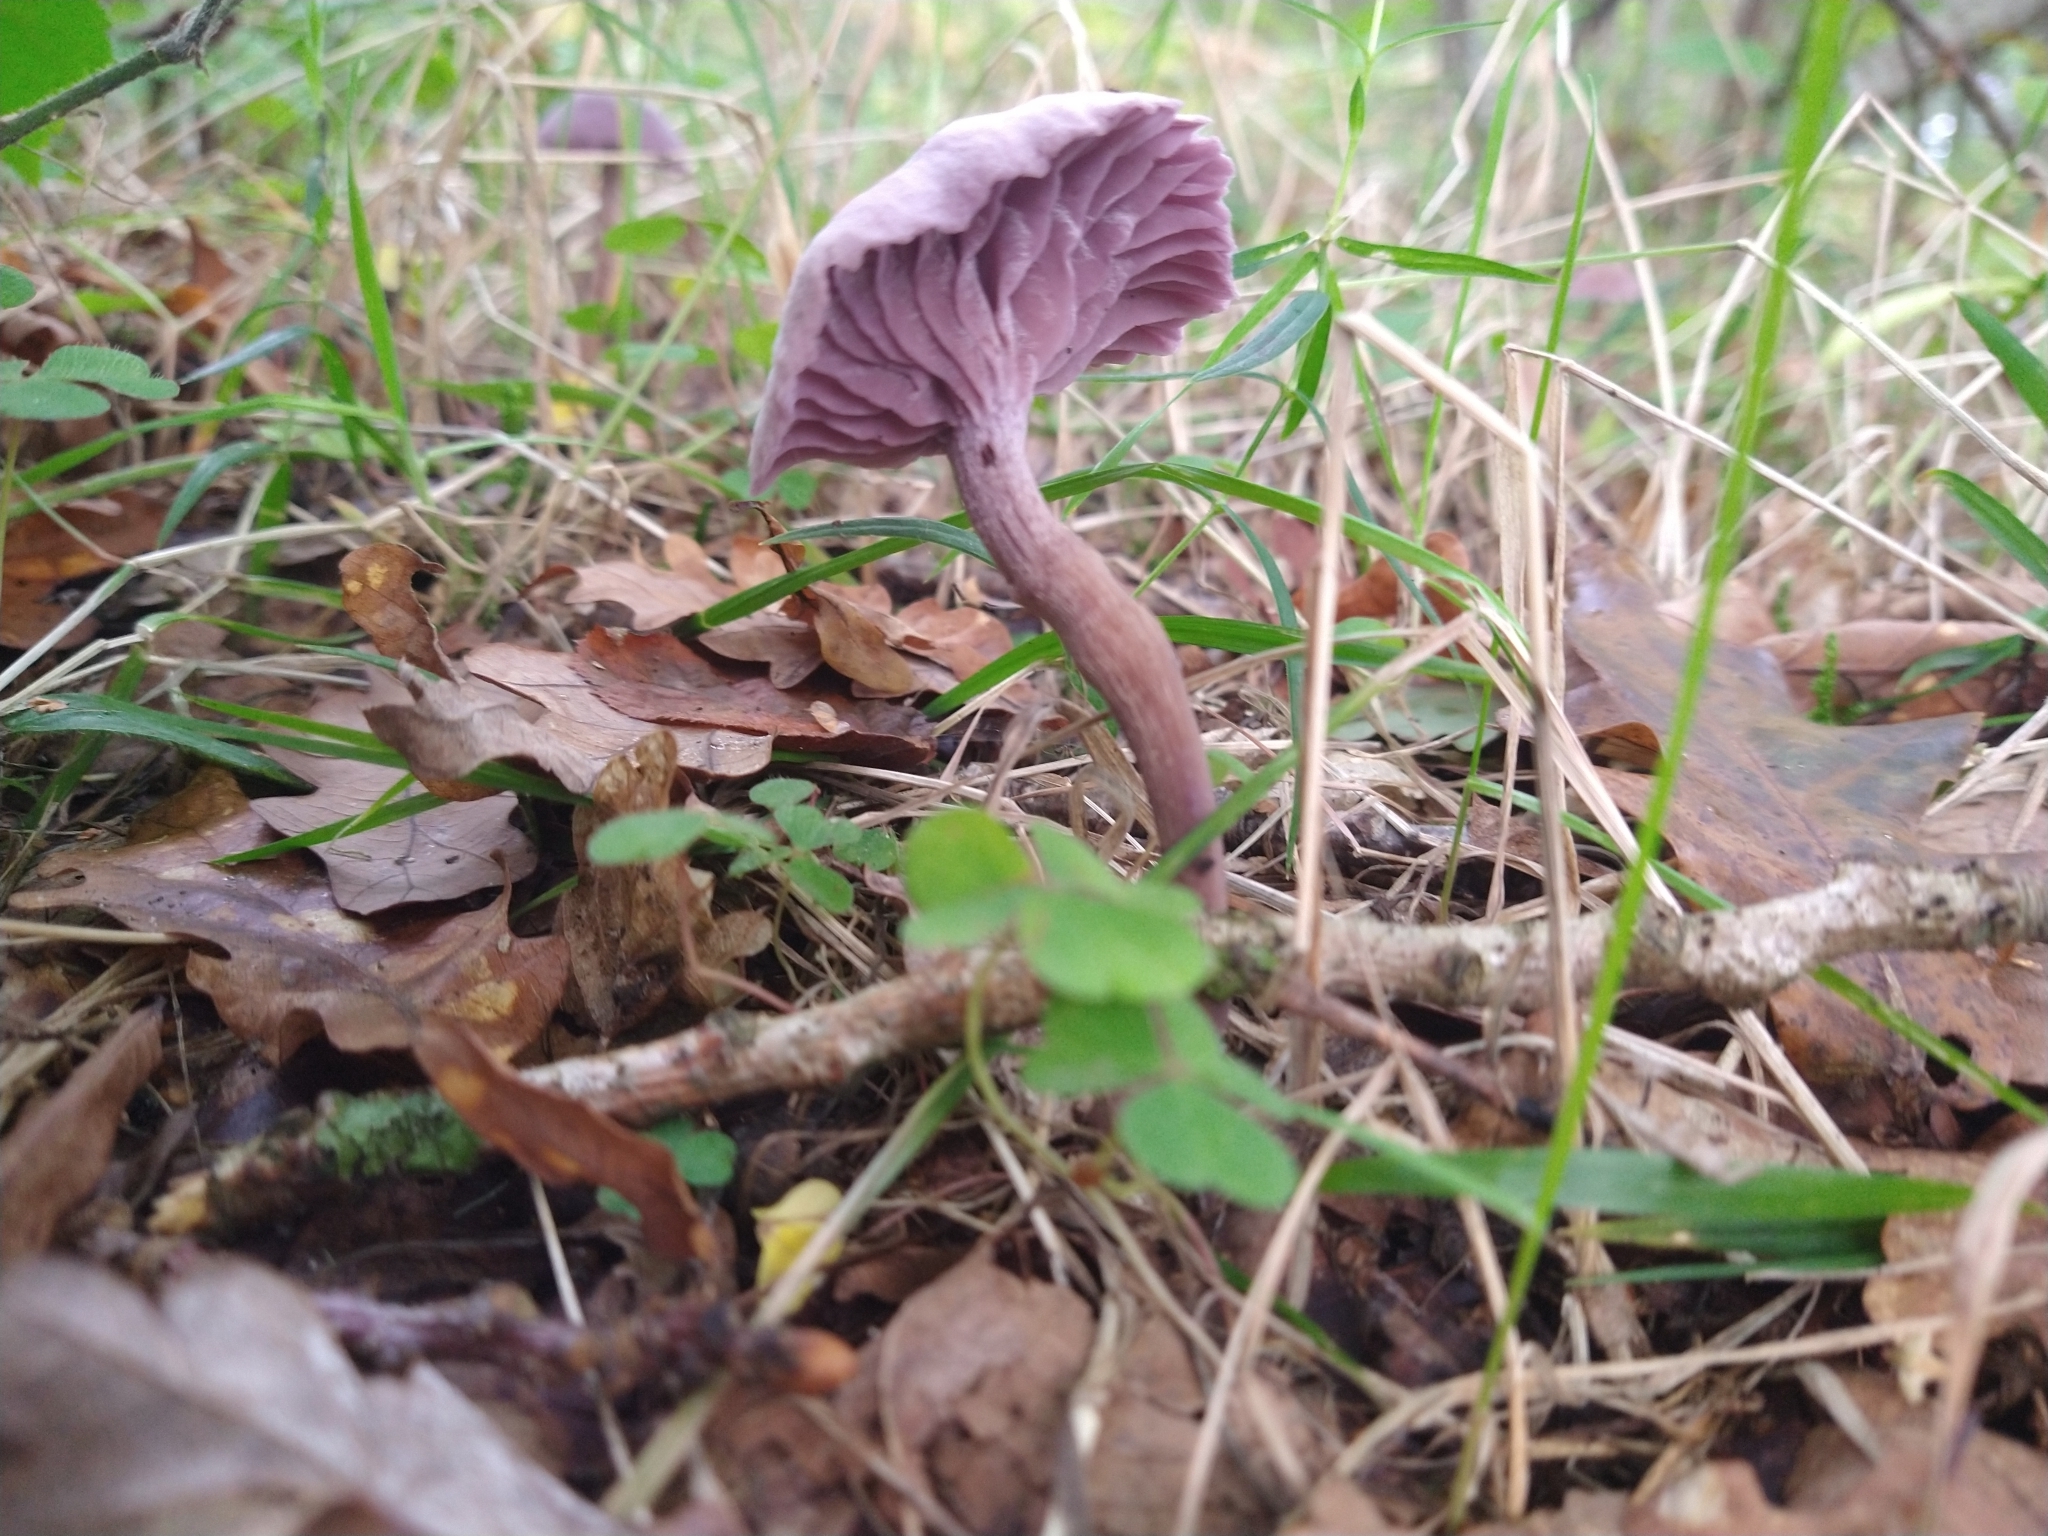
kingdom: Fungi
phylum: Basidiomycota
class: Agaricomycetes
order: Agaricales
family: Hydnangiaceae
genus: Laccaria
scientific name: Laccaria amethystina
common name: Amethyst deceiver
